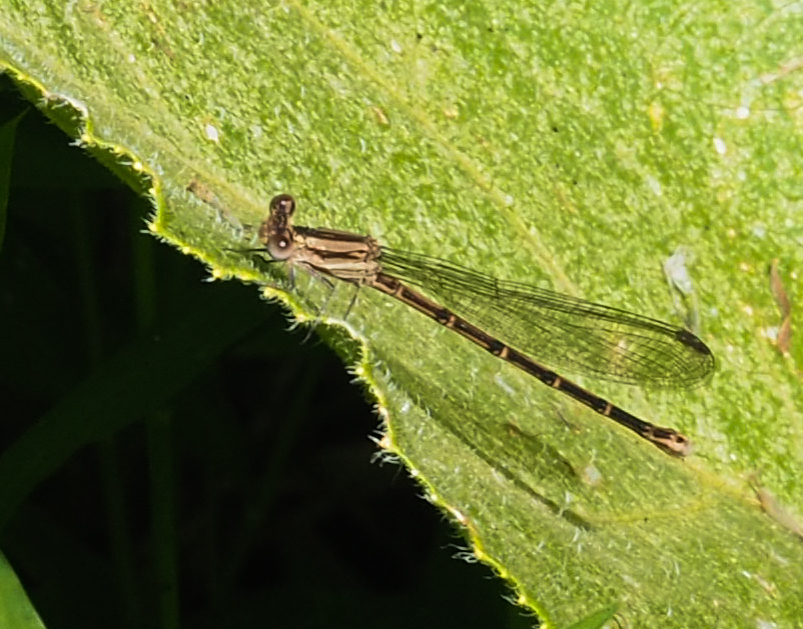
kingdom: Animalia
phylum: Arthropoda
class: Insecta
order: Odonata
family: Coenagrionidae
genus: Argia
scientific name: Argia fumipennis
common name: Variable dancer
